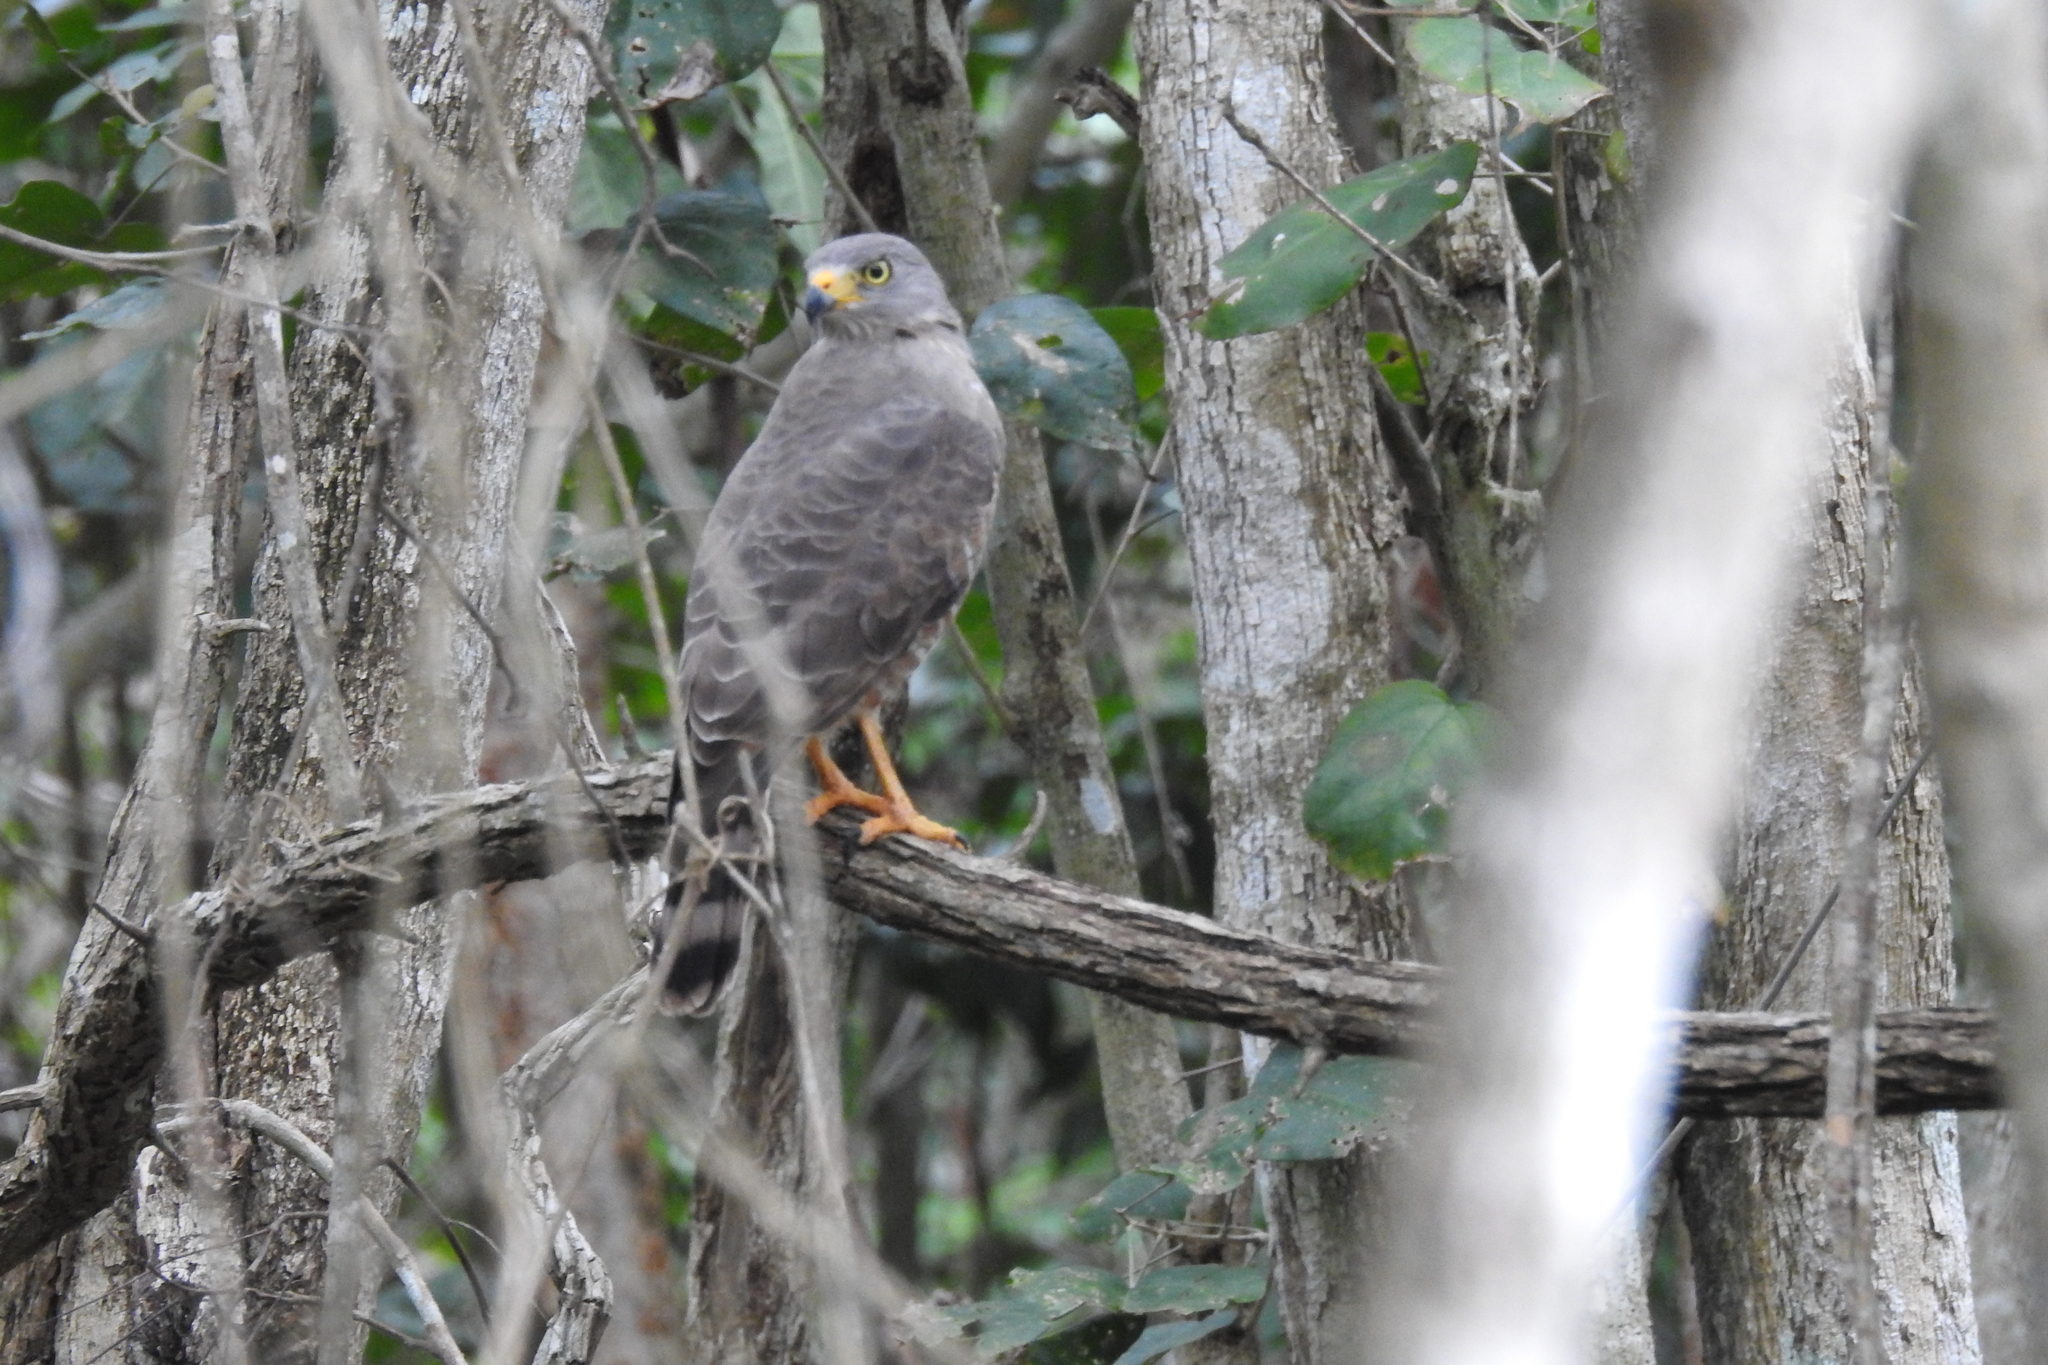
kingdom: Animalia
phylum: Chordata
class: Aves
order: Accipitriformes
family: Accipitridae
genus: Rupornis
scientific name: Rupornis magnirostris
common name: Roadside hawk
